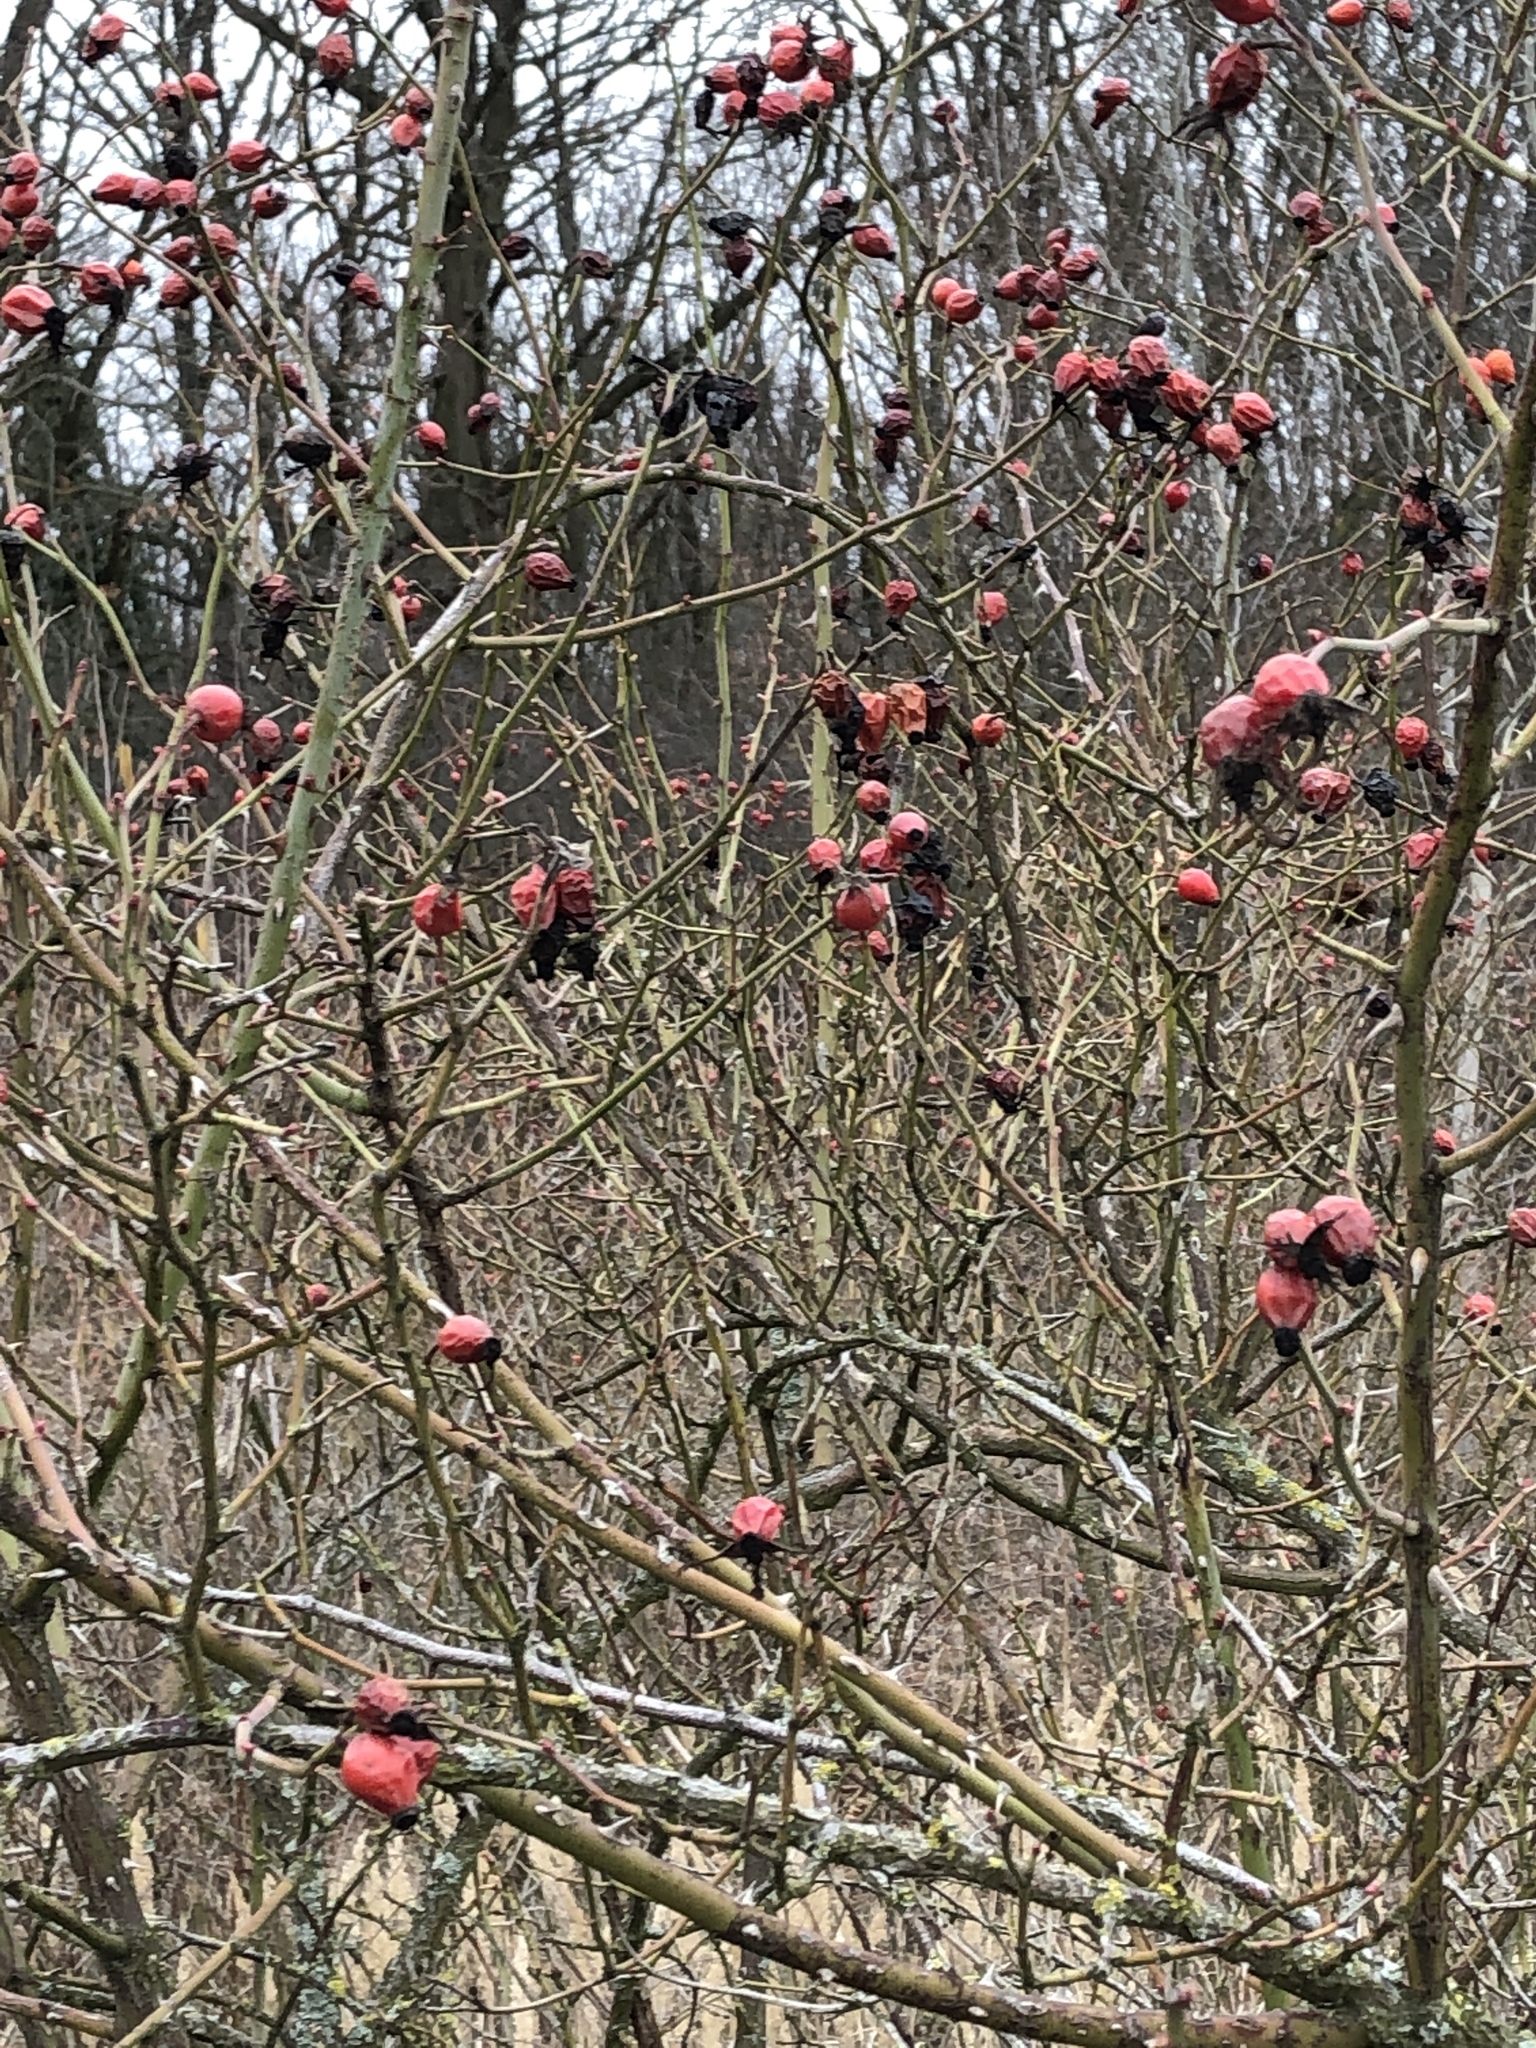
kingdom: Plantae
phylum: Tracheophyta
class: Magnoliopsida
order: Rosales
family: Rosaceae
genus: Rosa
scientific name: Rosa canina
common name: Dog rose
